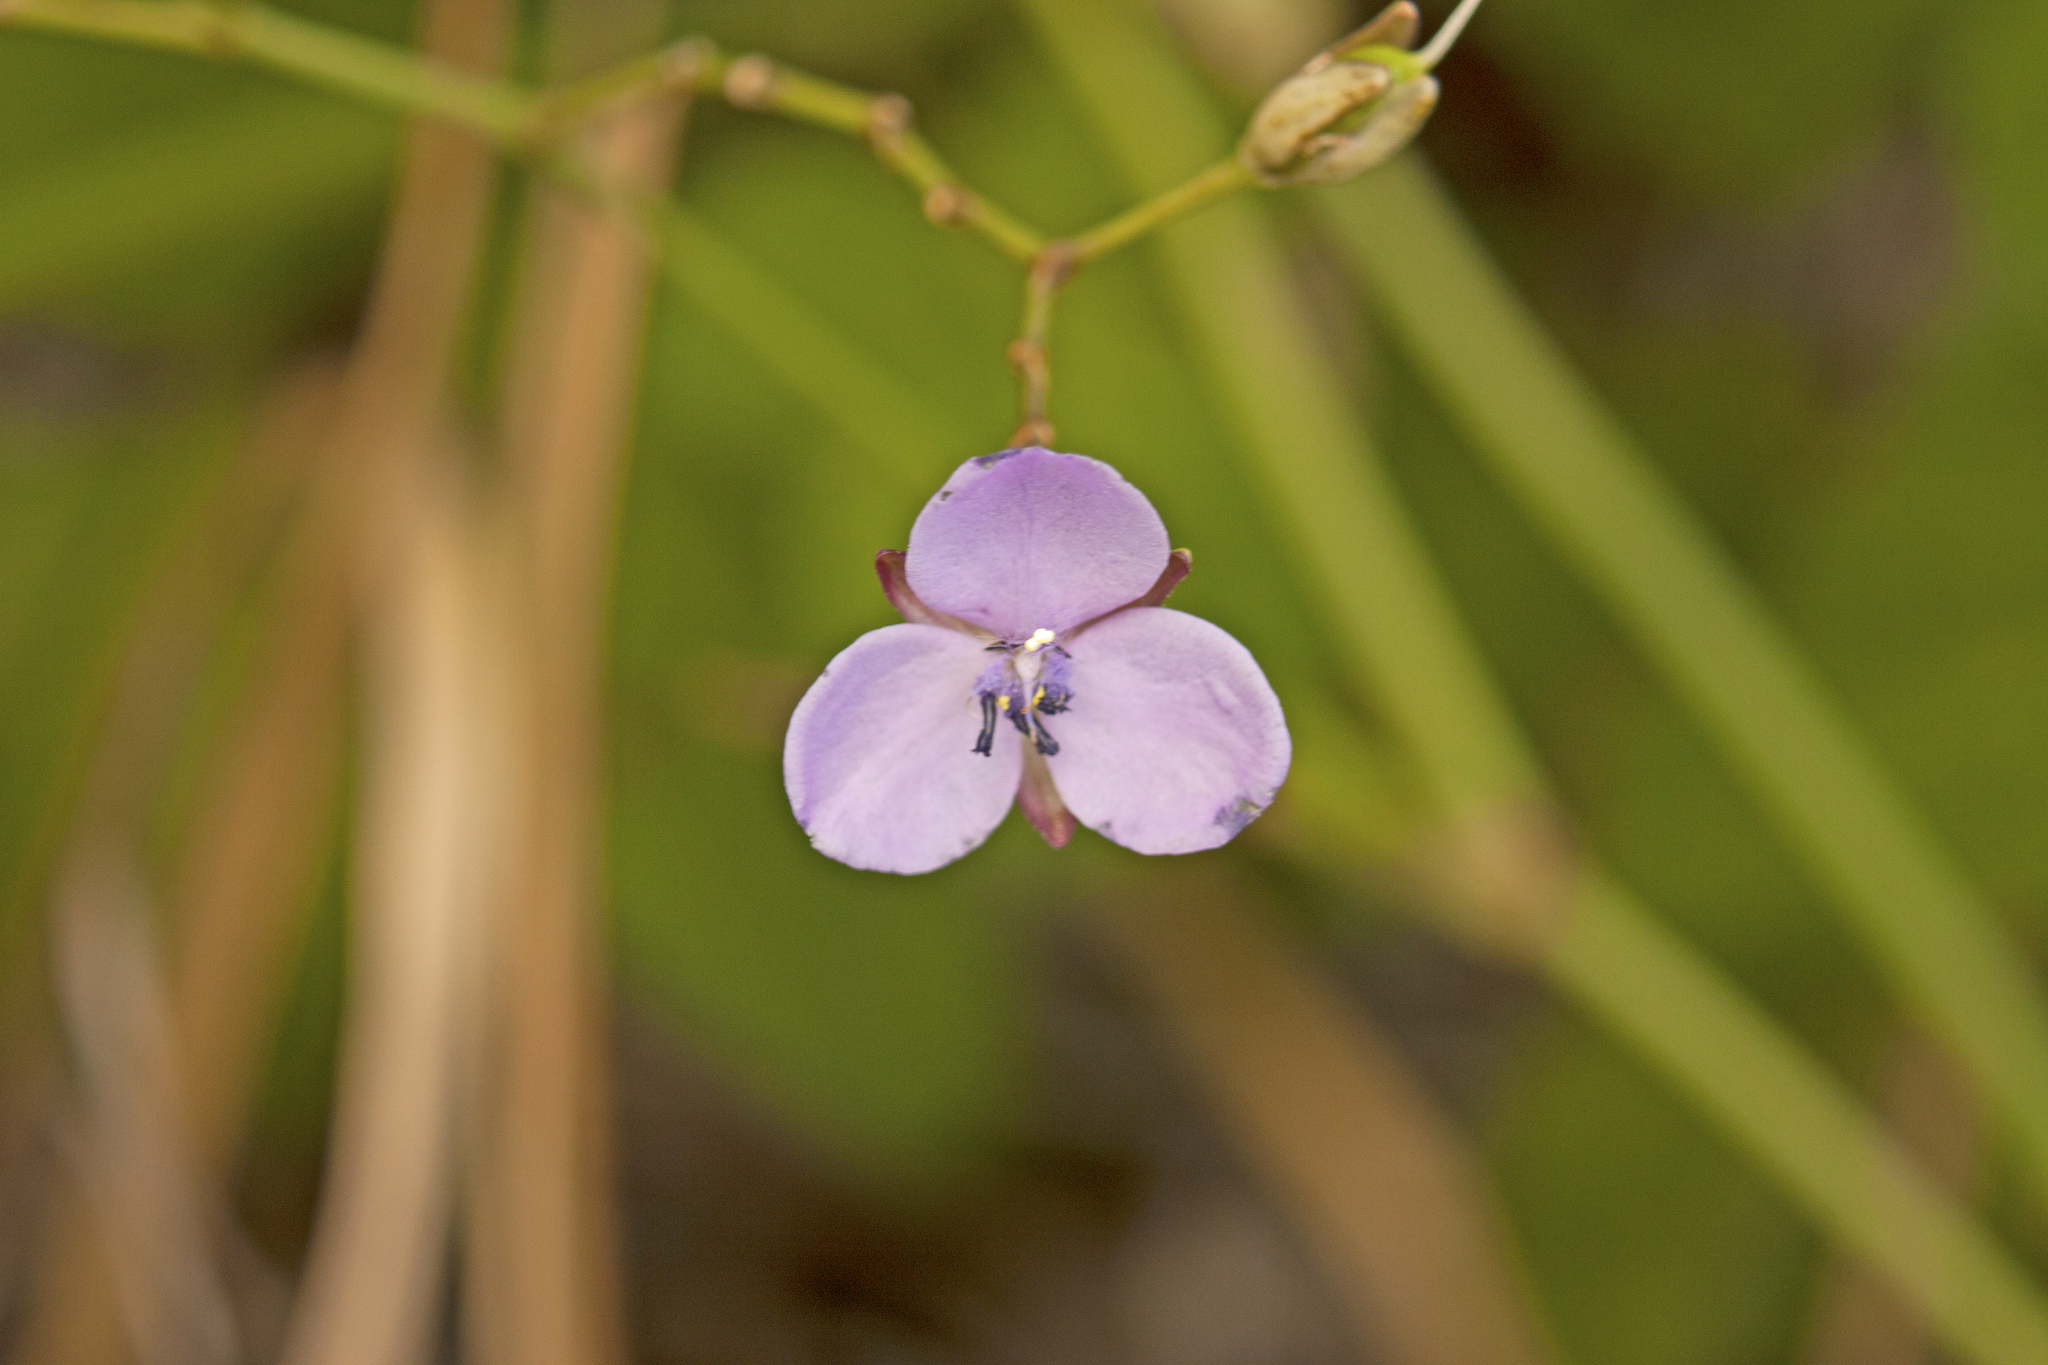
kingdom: Plantae
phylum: Tracheophyta
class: Liliopsida
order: Commelinales
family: Commelinaceae
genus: Murdannia
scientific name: Murdannia graminea
